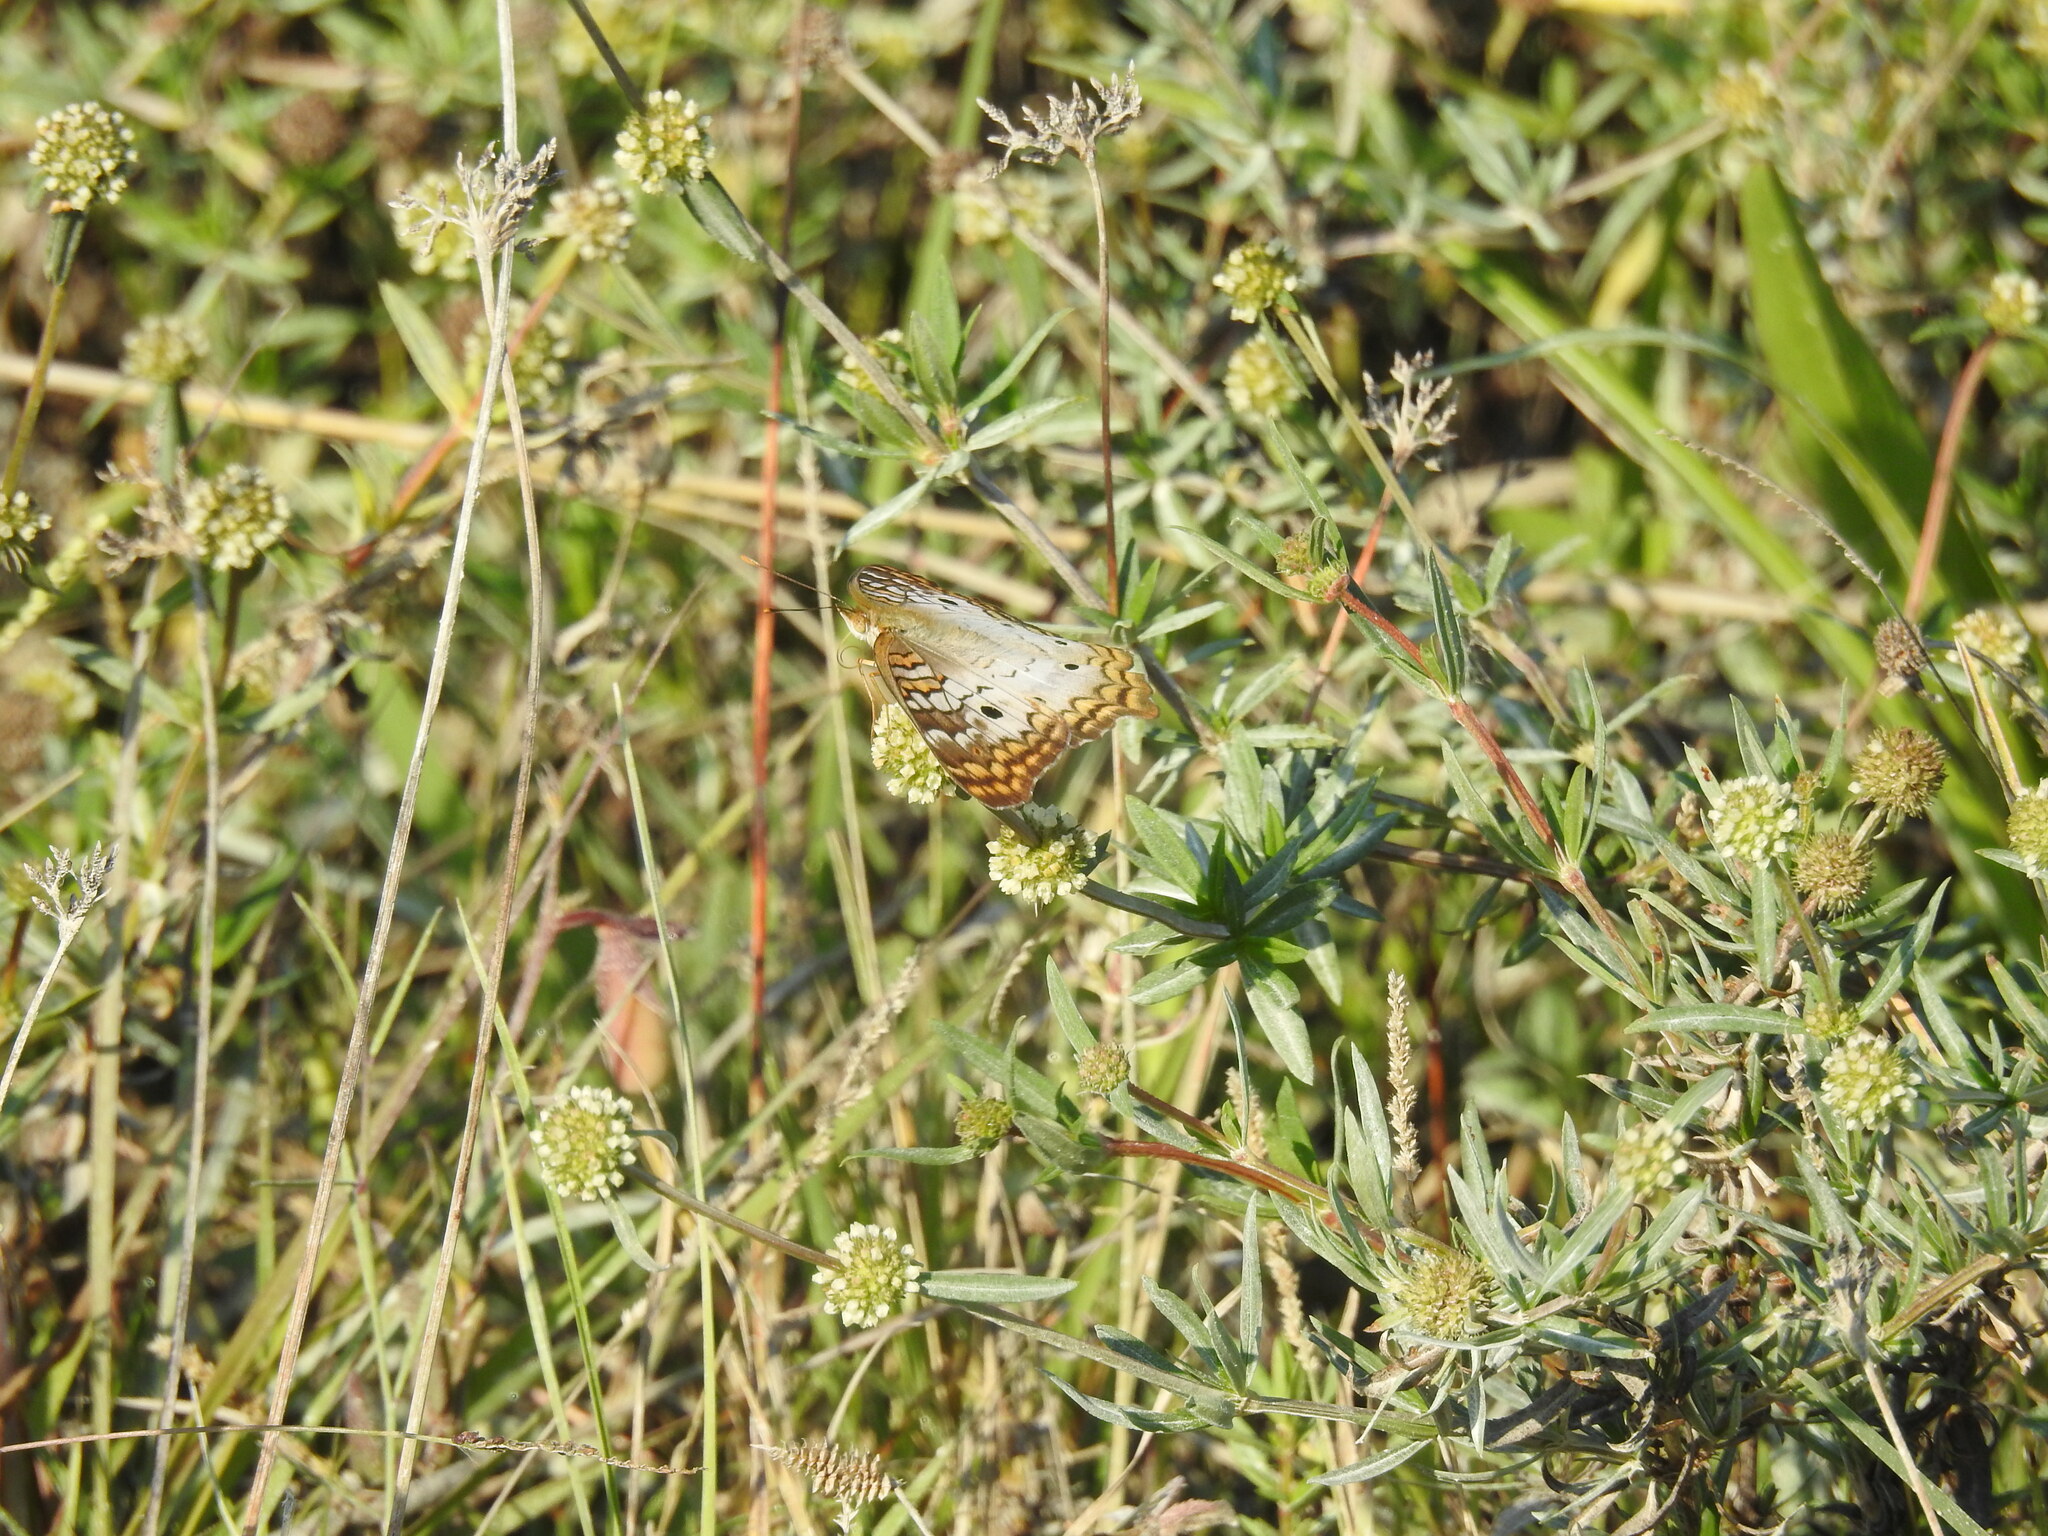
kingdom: Animalia
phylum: Arthropoda
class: Insecta
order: Lepidoptera
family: Nymphalidae
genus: Anartia
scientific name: Anartia jatrophae
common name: White peacock
